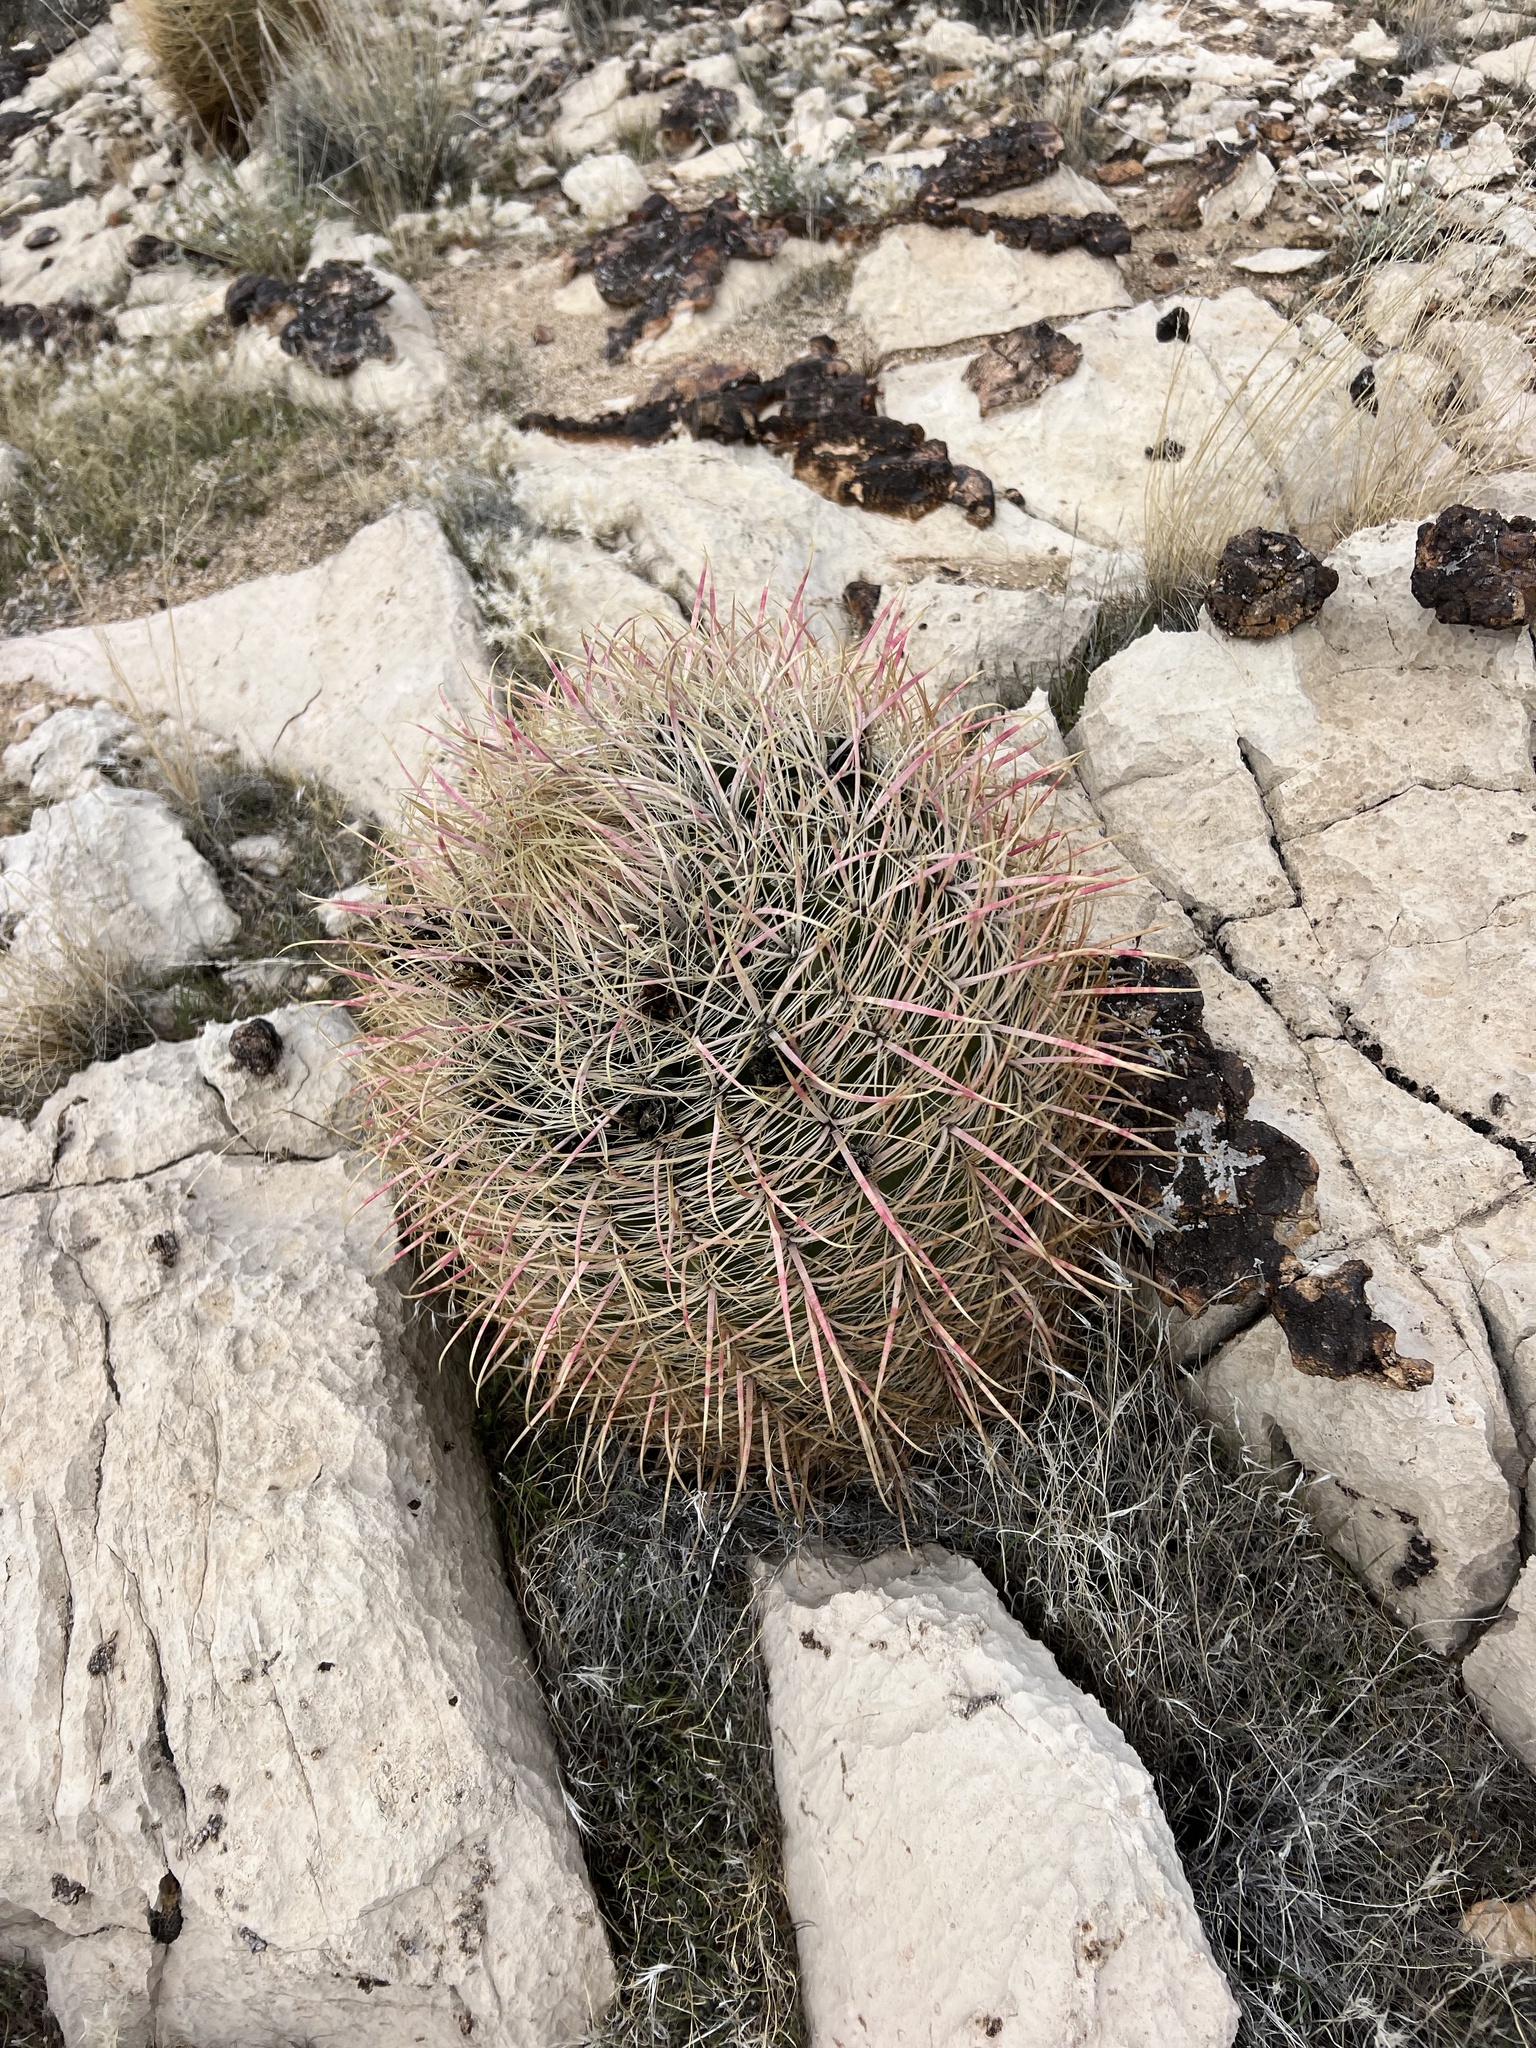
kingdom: Plantae
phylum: Tracheophyta
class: Magnoliopsida
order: Caryophyllales
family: Cactaceae
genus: Ferocactus
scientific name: Ferocactus cylindraceus
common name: California barrel cactus
